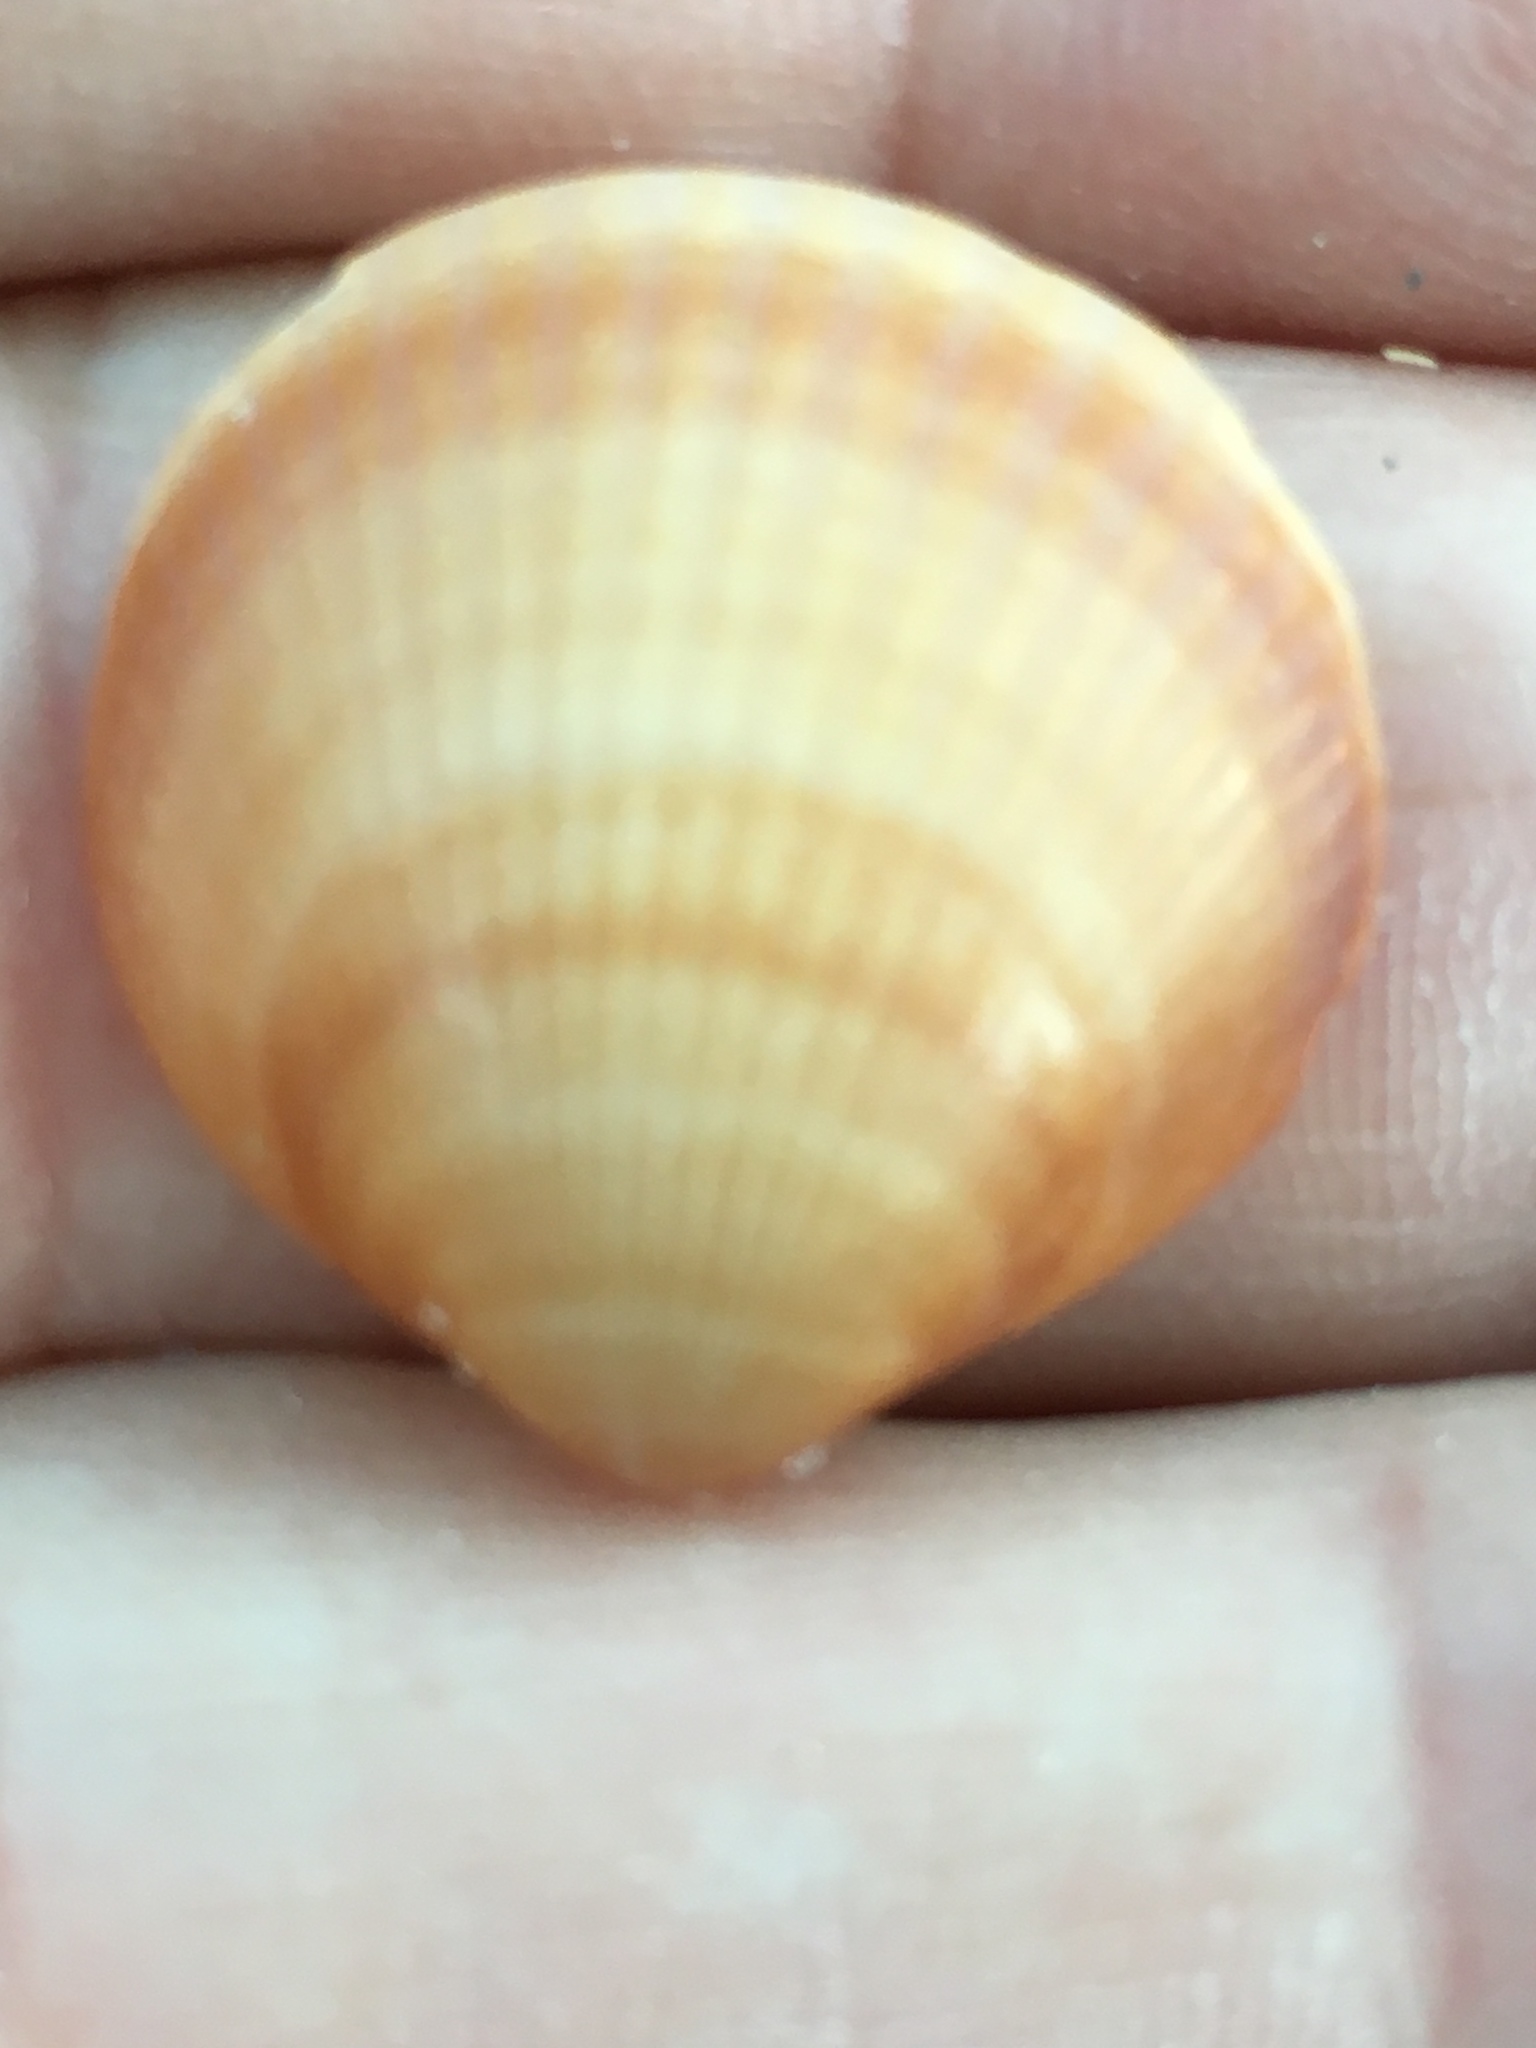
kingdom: Animalia
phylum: Mollusca
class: Bivalvia
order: Arcida
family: Glycymerididae
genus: Glycymeris
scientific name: Glycymeris spectralis
